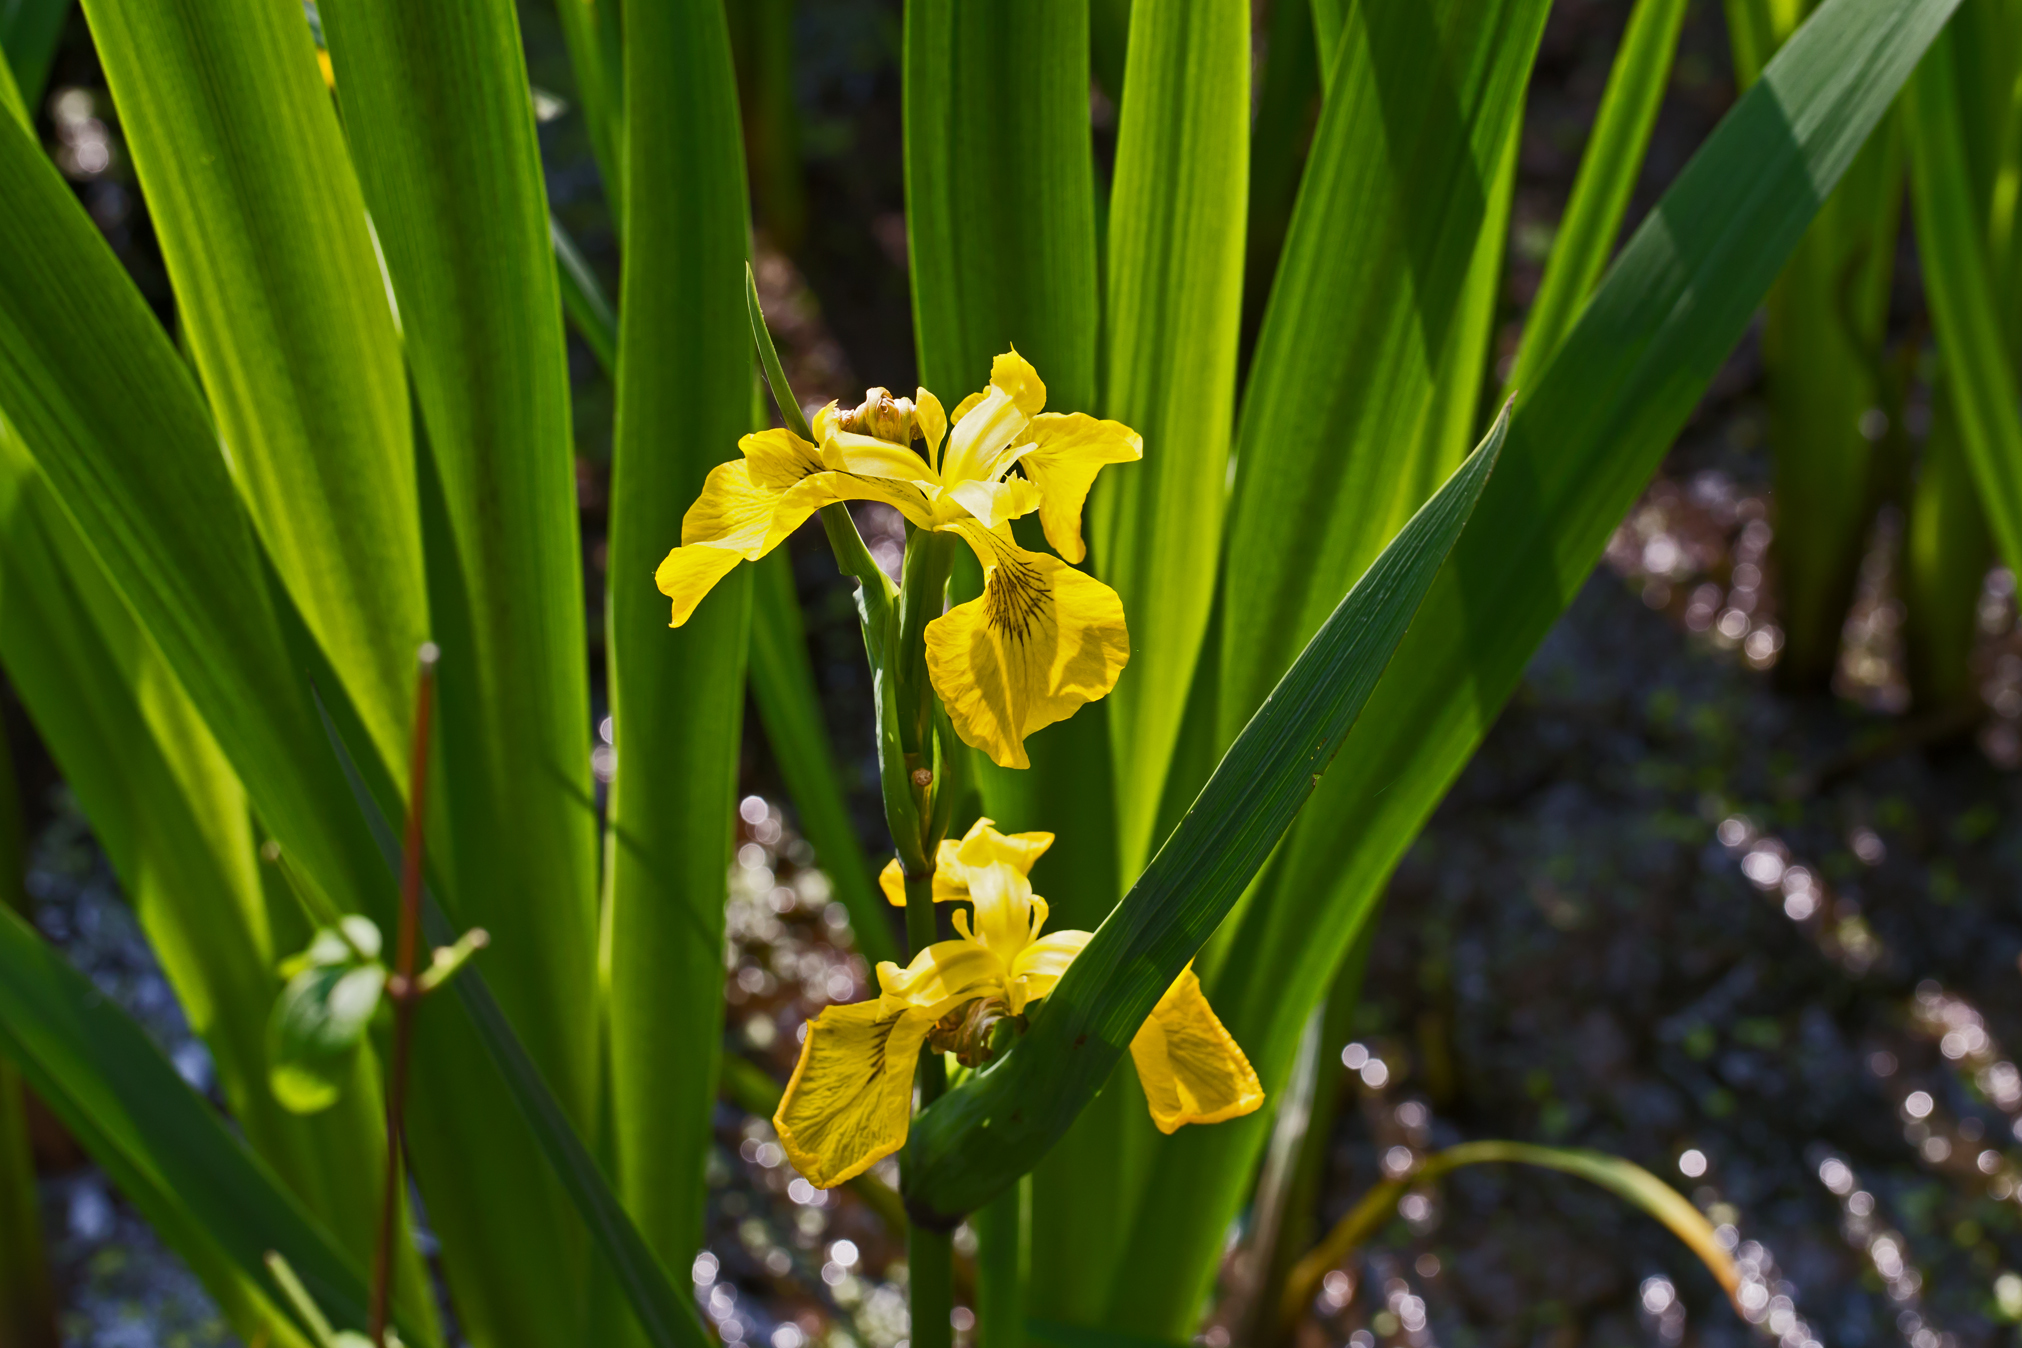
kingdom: Plantae
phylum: Tracheophyta
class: Liliopsida
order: Asparagales
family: Iridaceae
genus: Iris
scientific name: Iris pseudacorus
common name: Yellow flag
